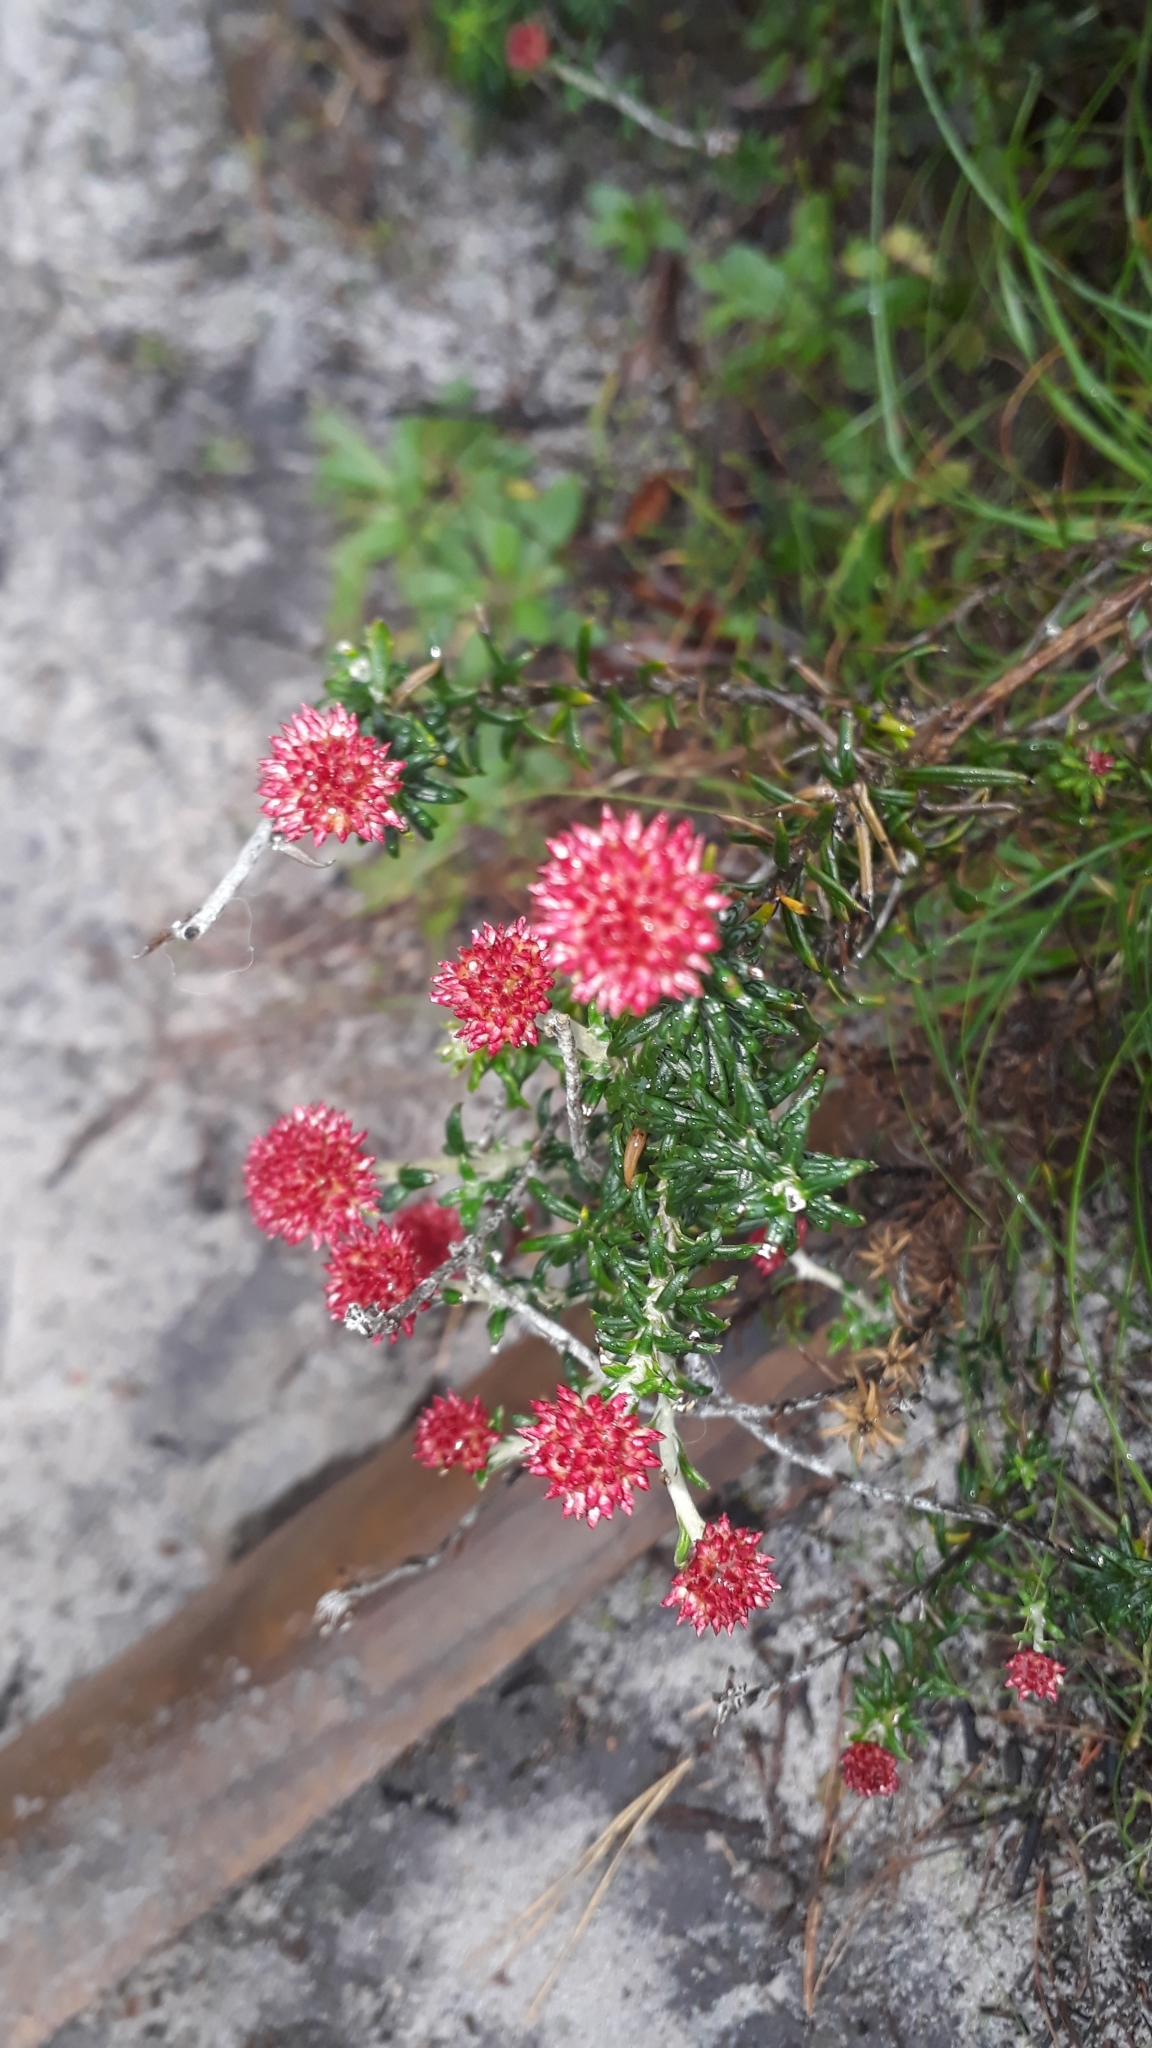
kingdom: Plantae
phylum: Tracheophyta
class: Magnoliopsida
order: Asterales
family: Asteraceae
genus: Anaxeton
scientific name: Anaxeton arborescens
